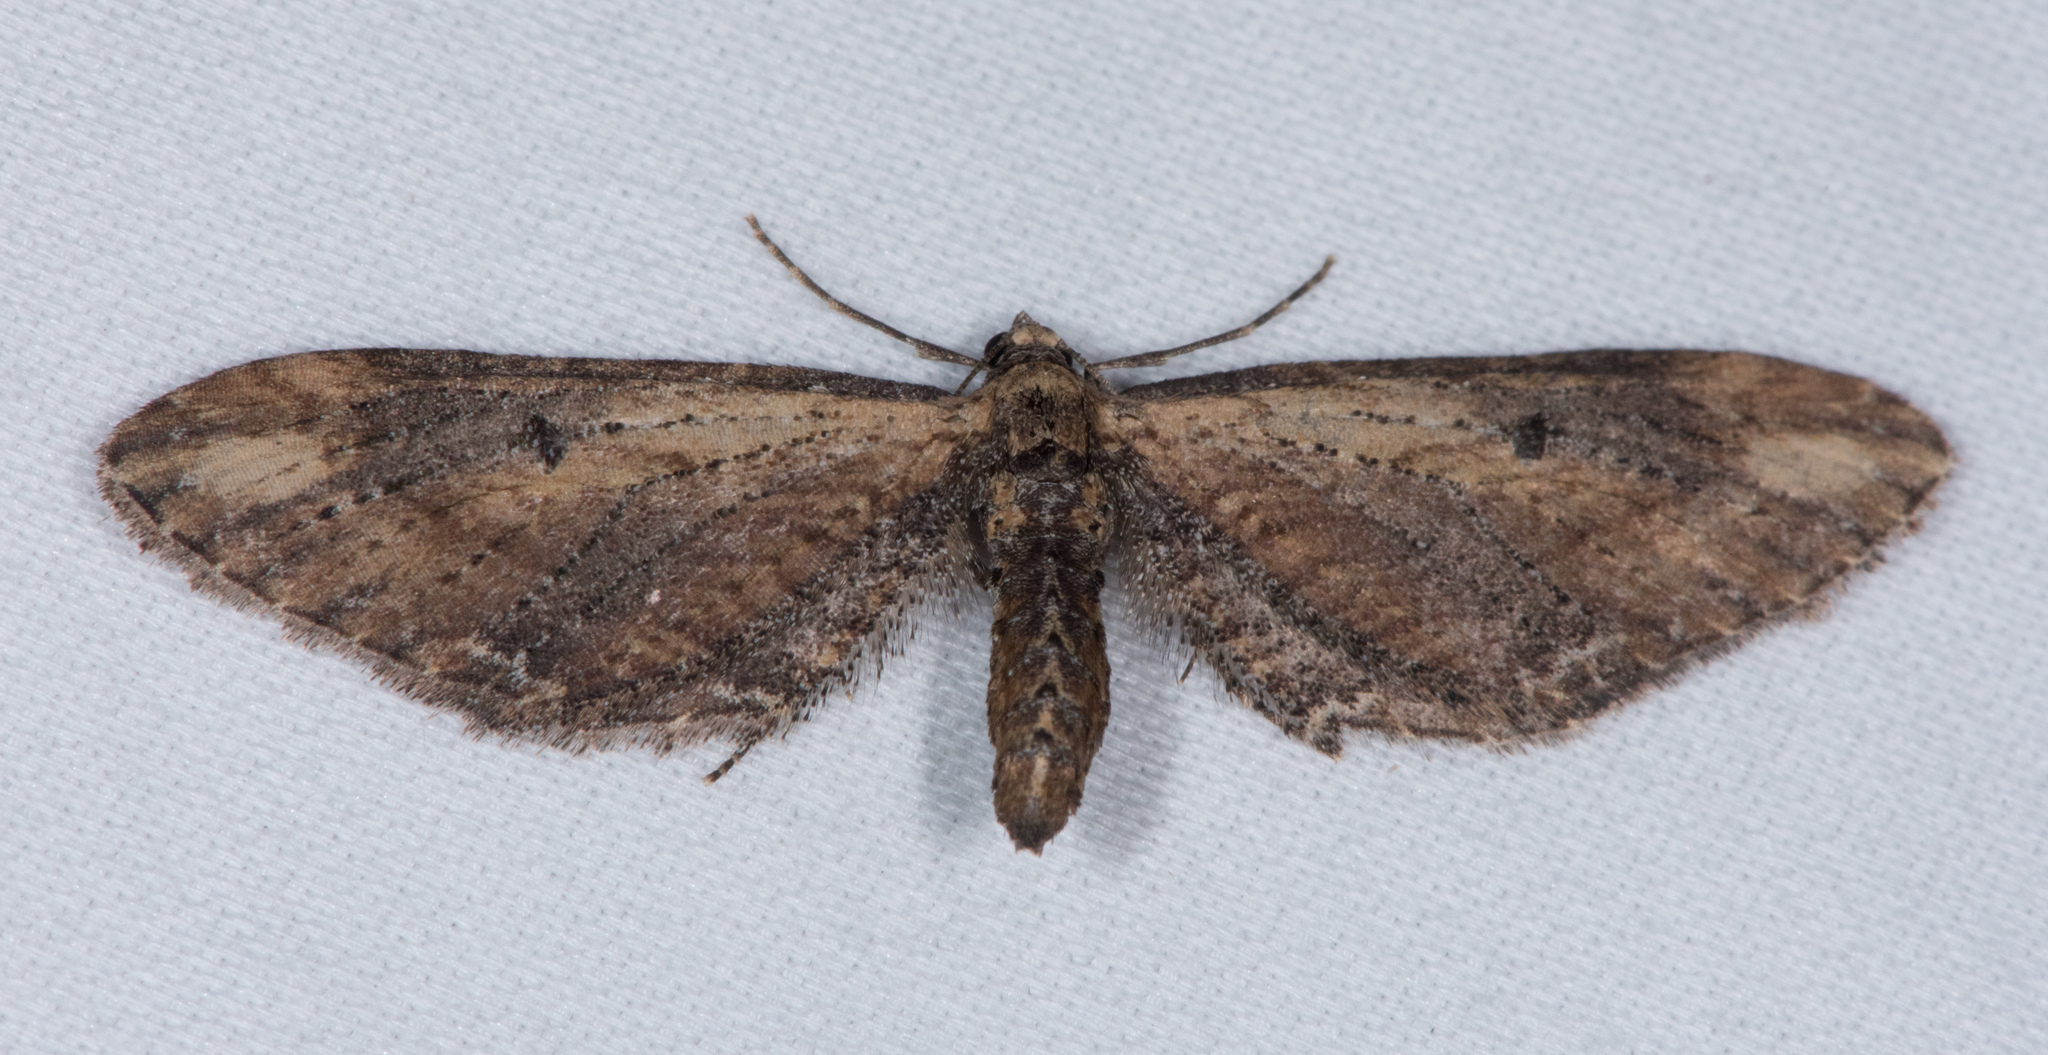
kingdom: Animalia
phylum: Arthropoda
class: Insecta
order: Lepidoptera
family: Geometridae
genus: Eupithecia
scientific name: Eupithecia subapicata
